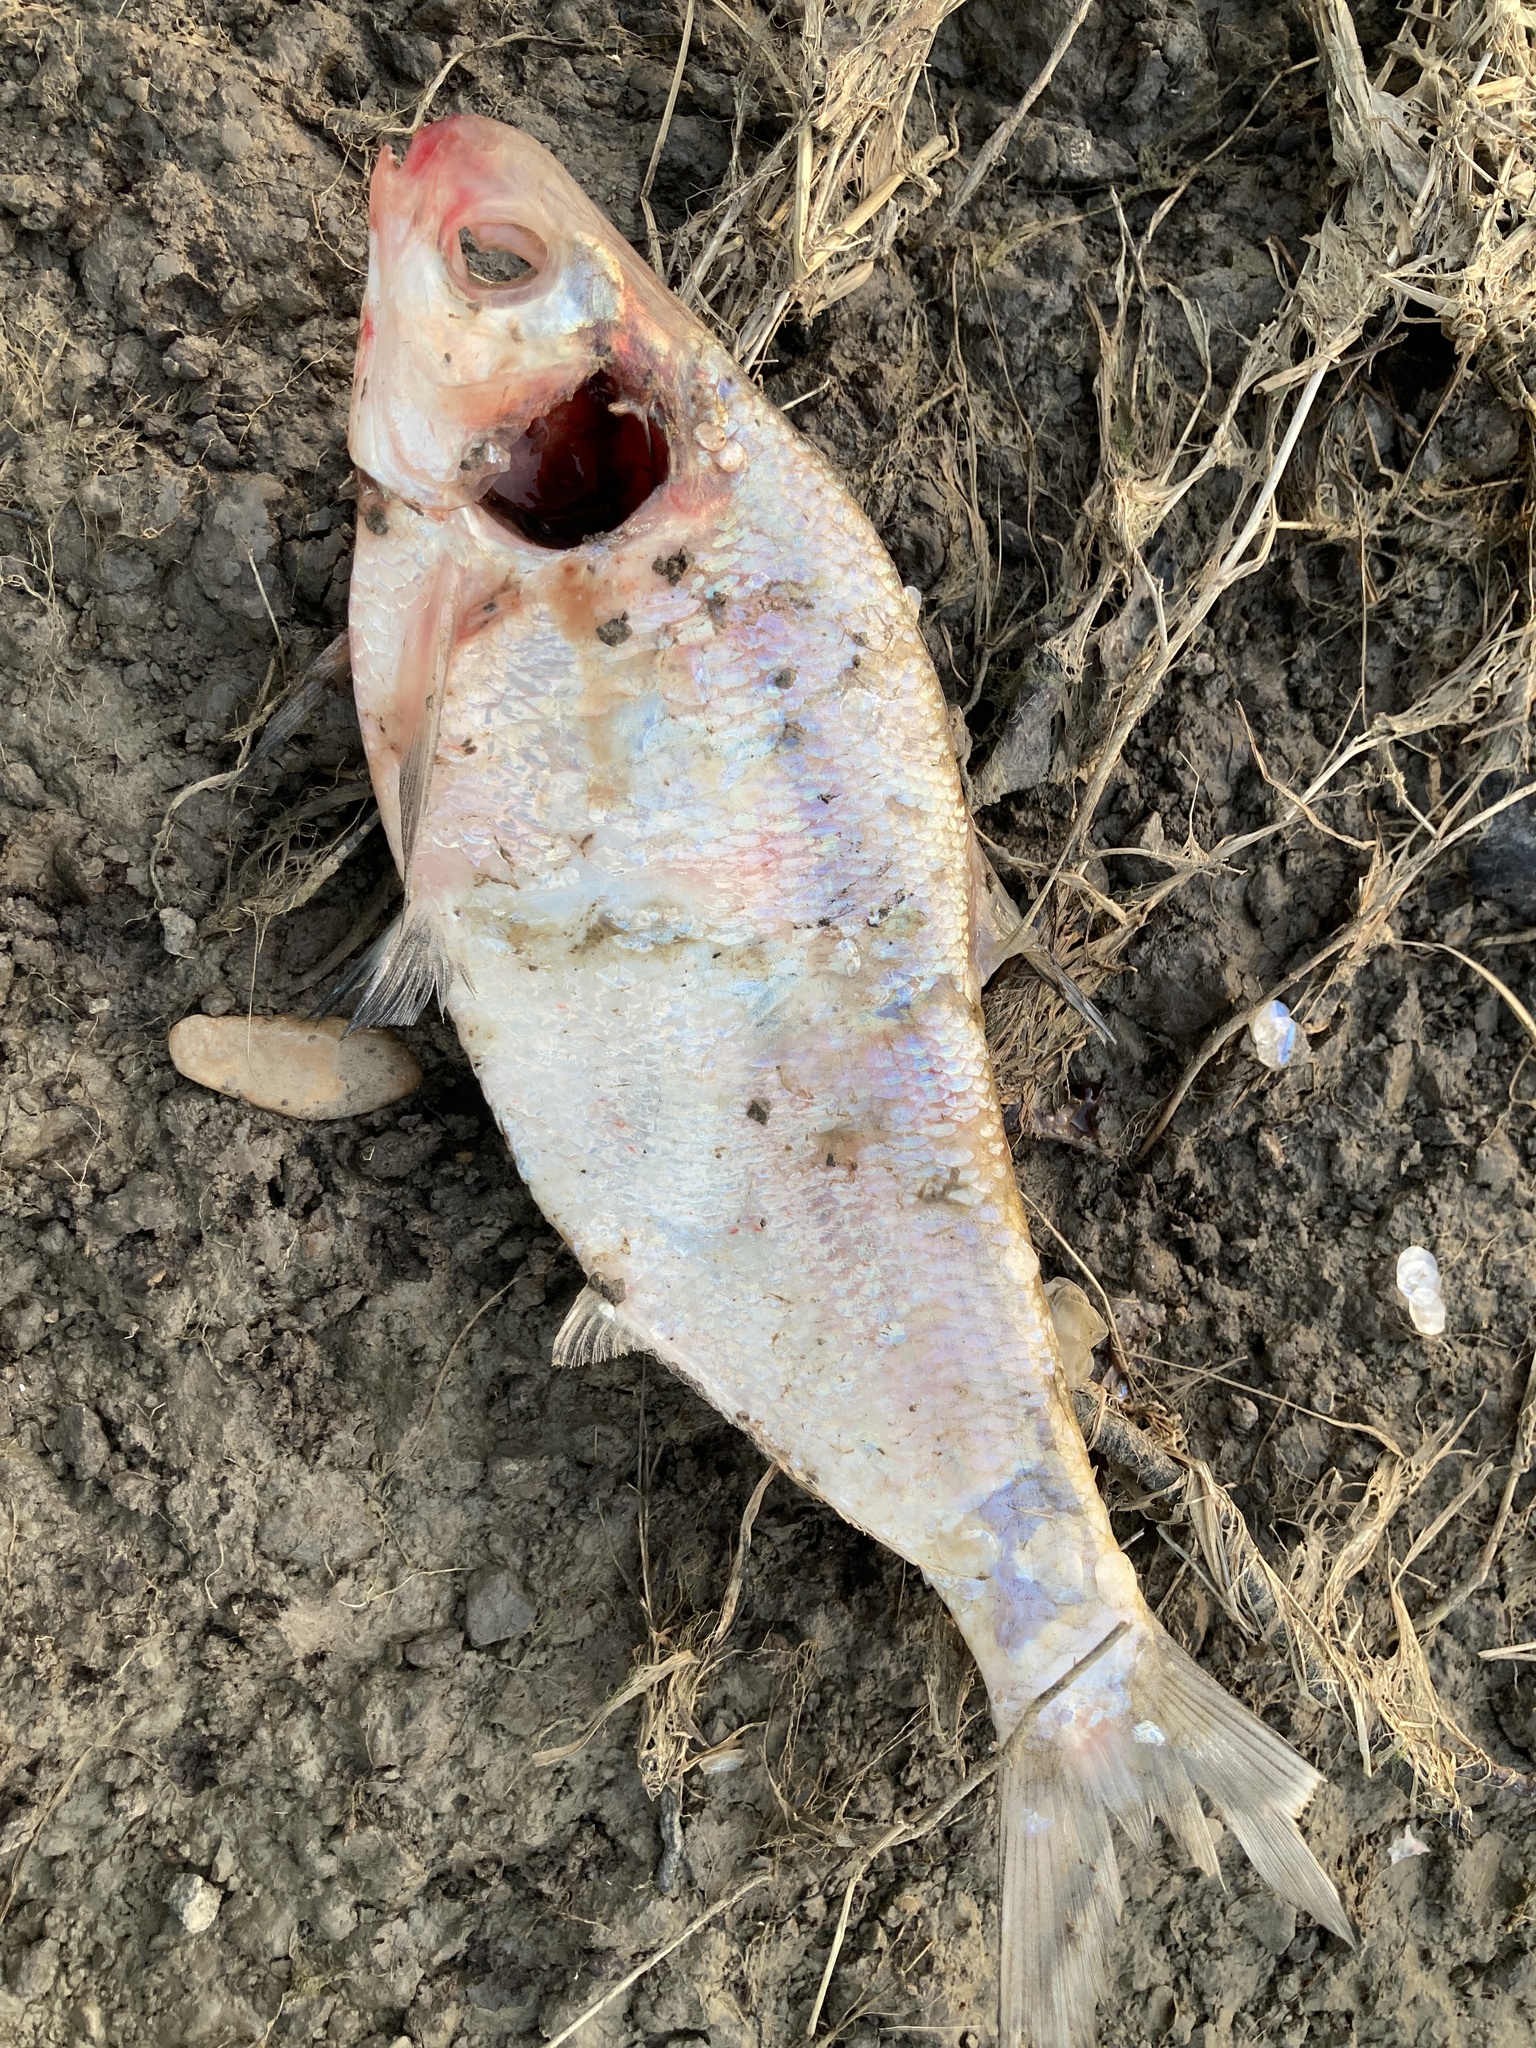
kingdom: Animalia
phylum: Chordata
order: Clupeiformes
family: Clupeidae
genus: Dorosoma
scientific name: Dorosoma cepedianum
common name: Gizzard shad
